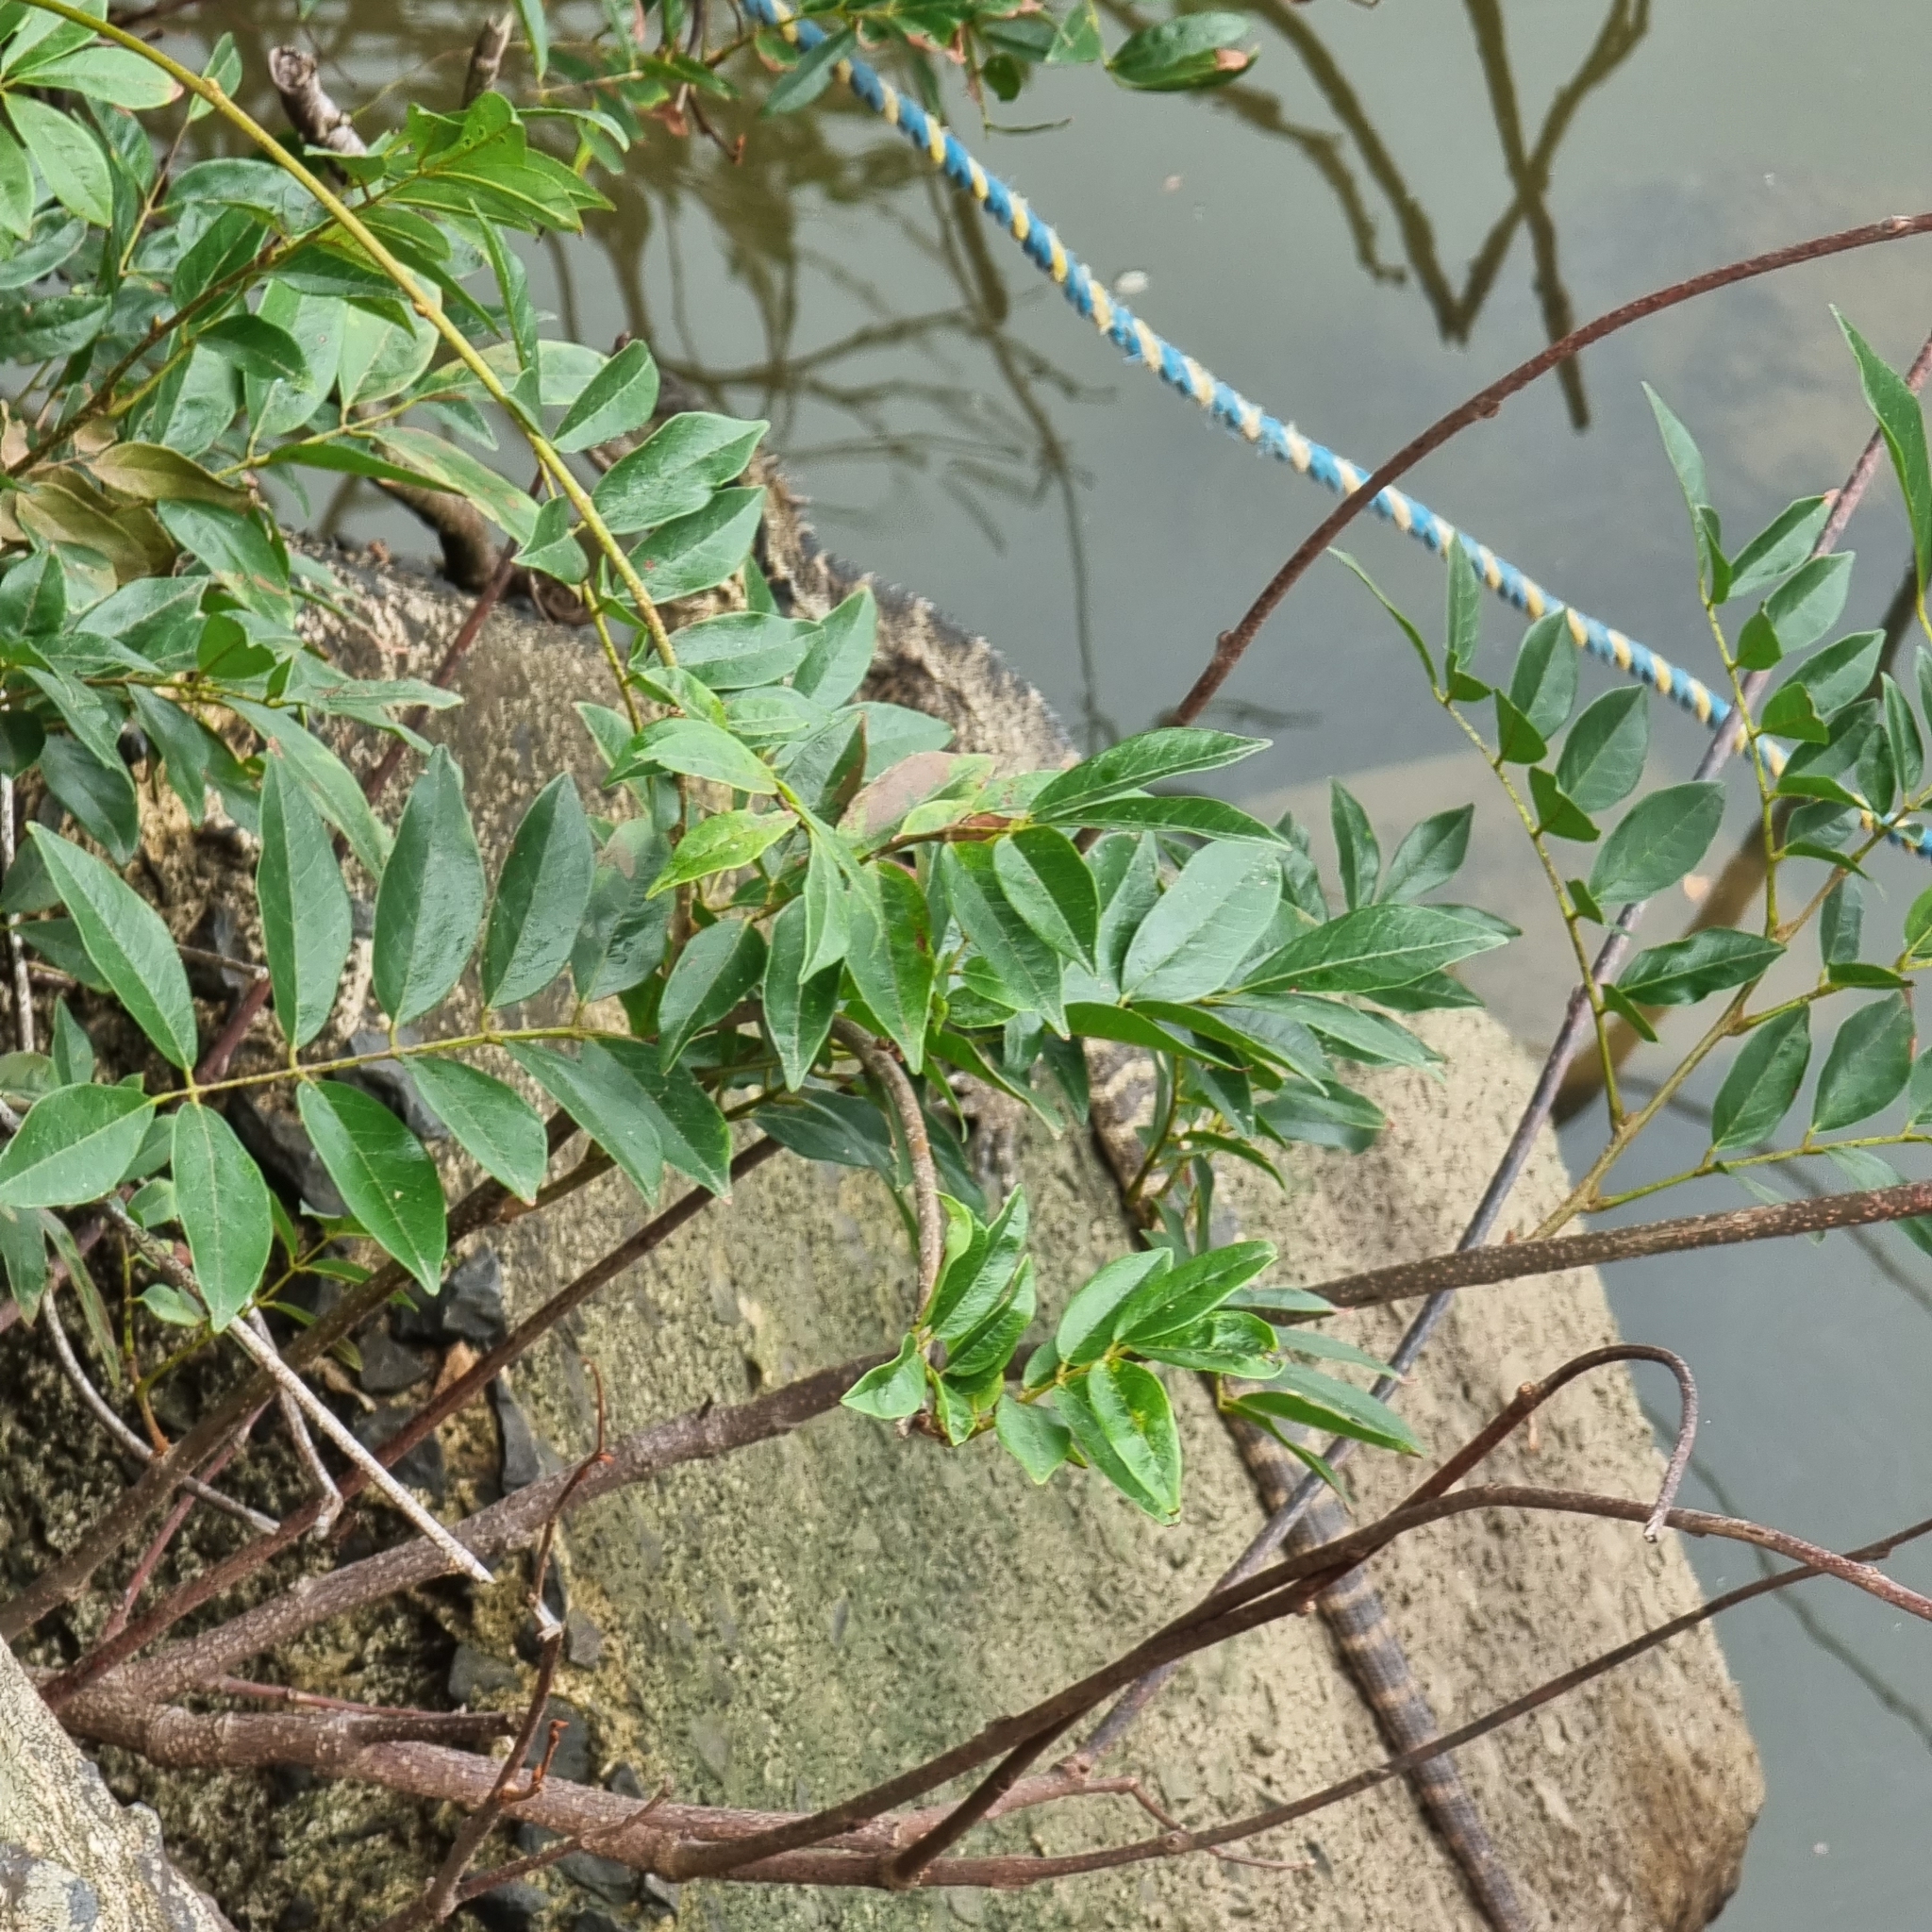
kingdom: Animalia
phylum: Chordata
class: Squamata
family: Agamidae
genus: Intellagama
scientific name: Intellagama lesueurii
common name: Eastern water dragon
